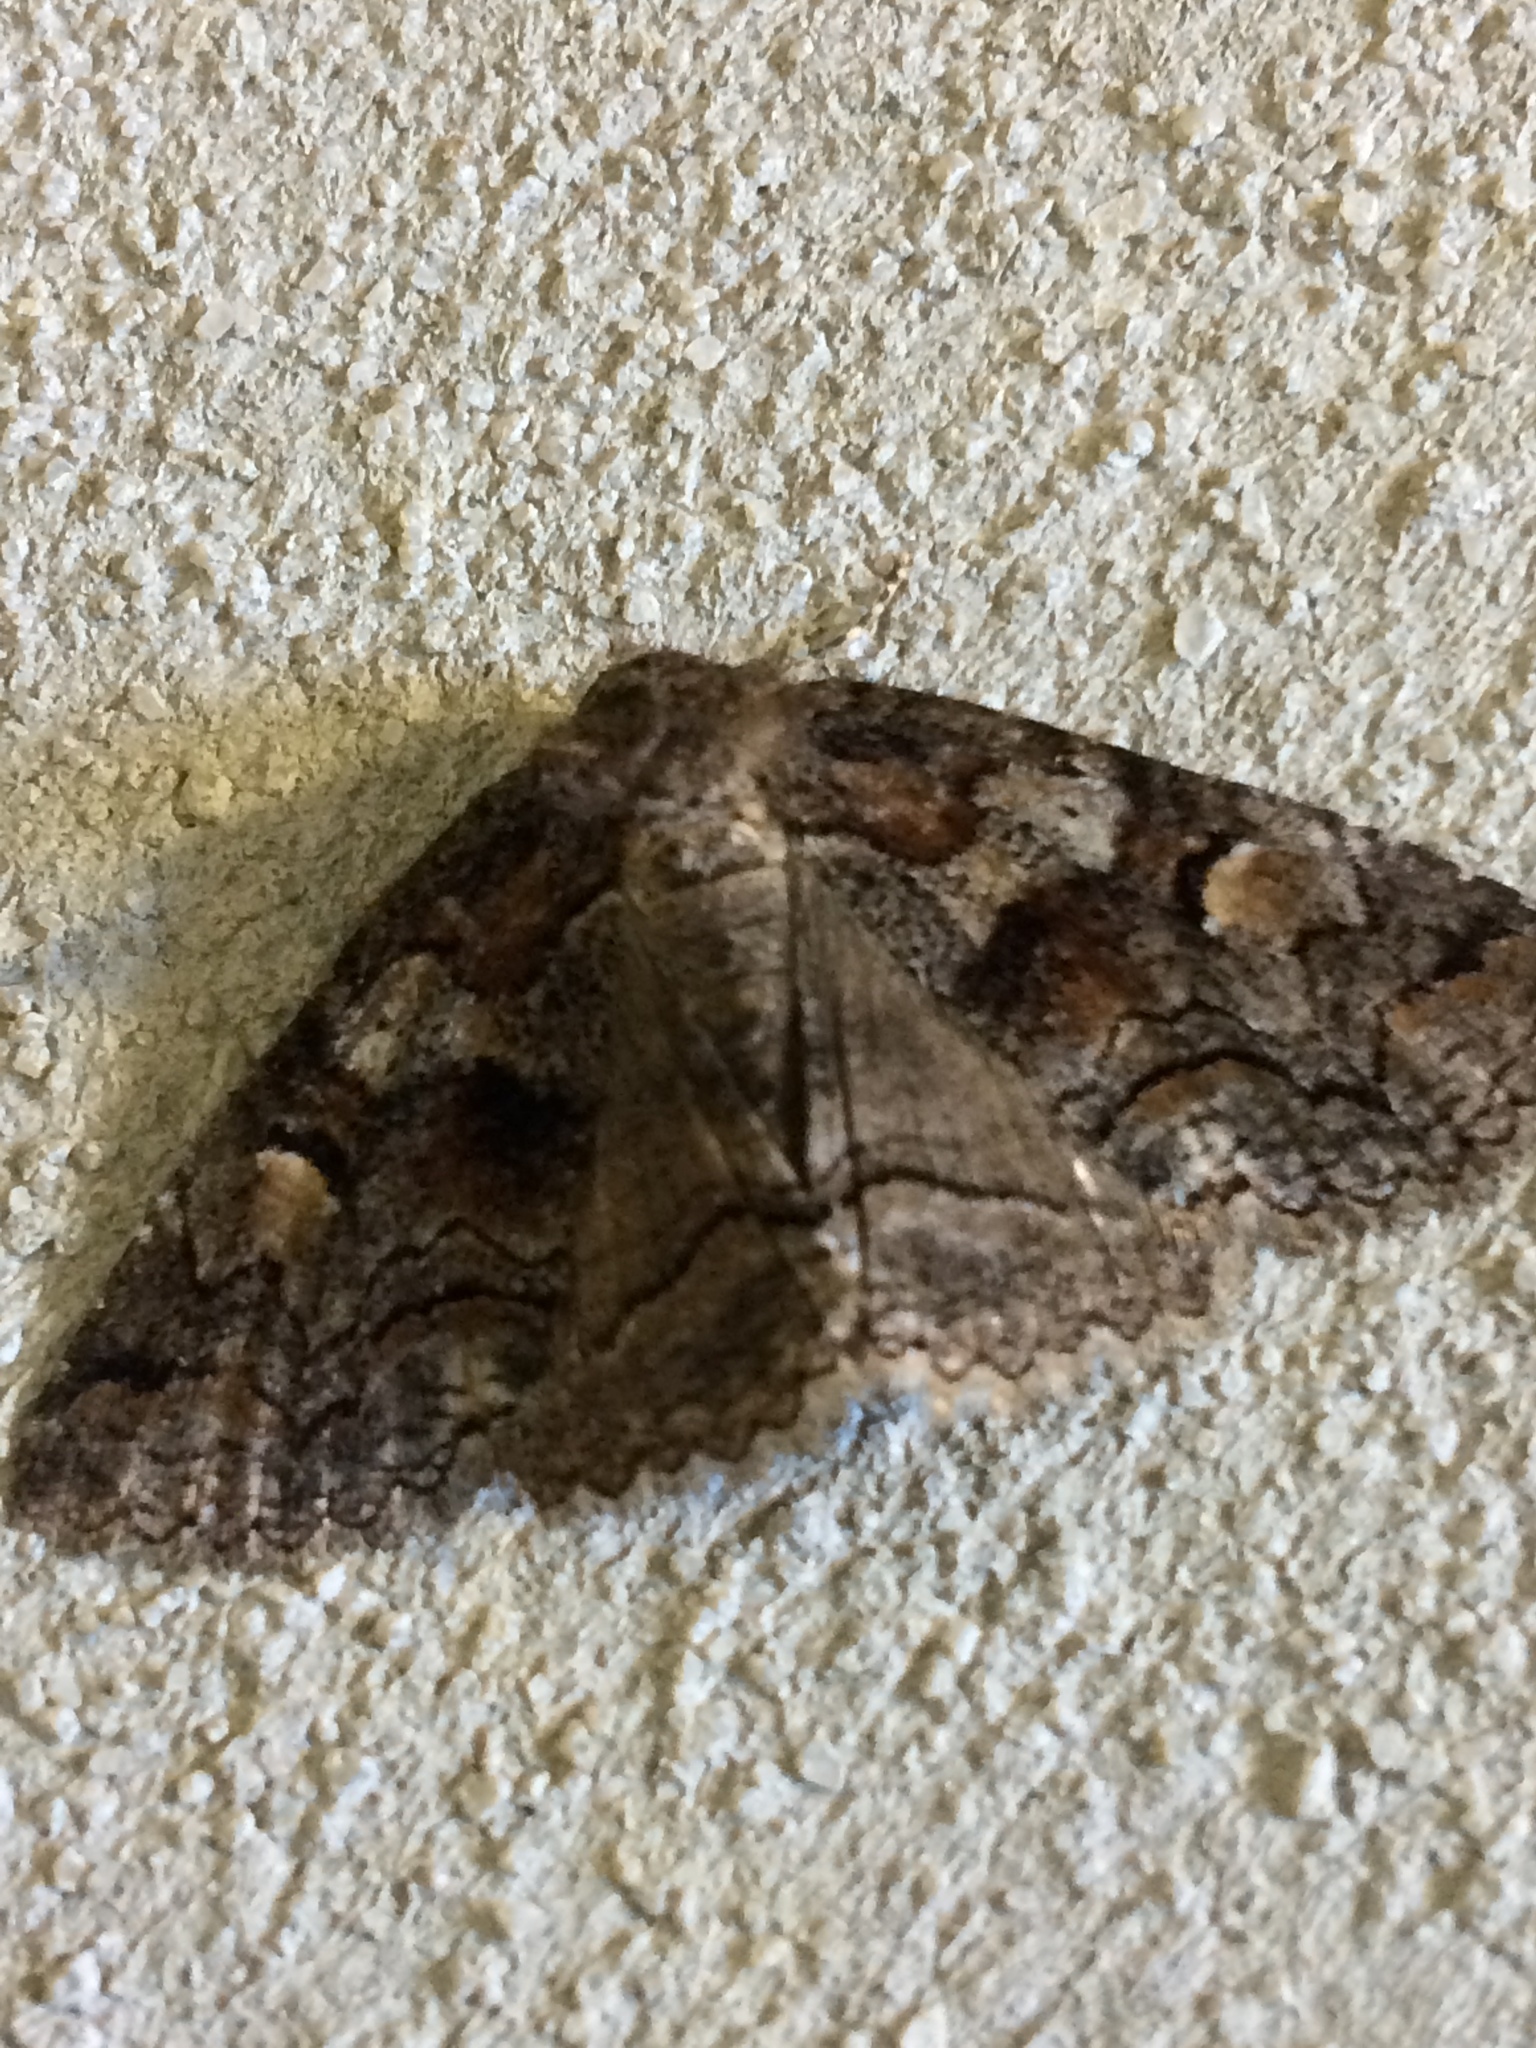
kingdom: Animalia
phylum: Arthropoda
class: Insecta
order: Lepidoptera
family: Erebidae
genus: Zale
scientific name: Zale duplicata
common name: Pine false looper moth
